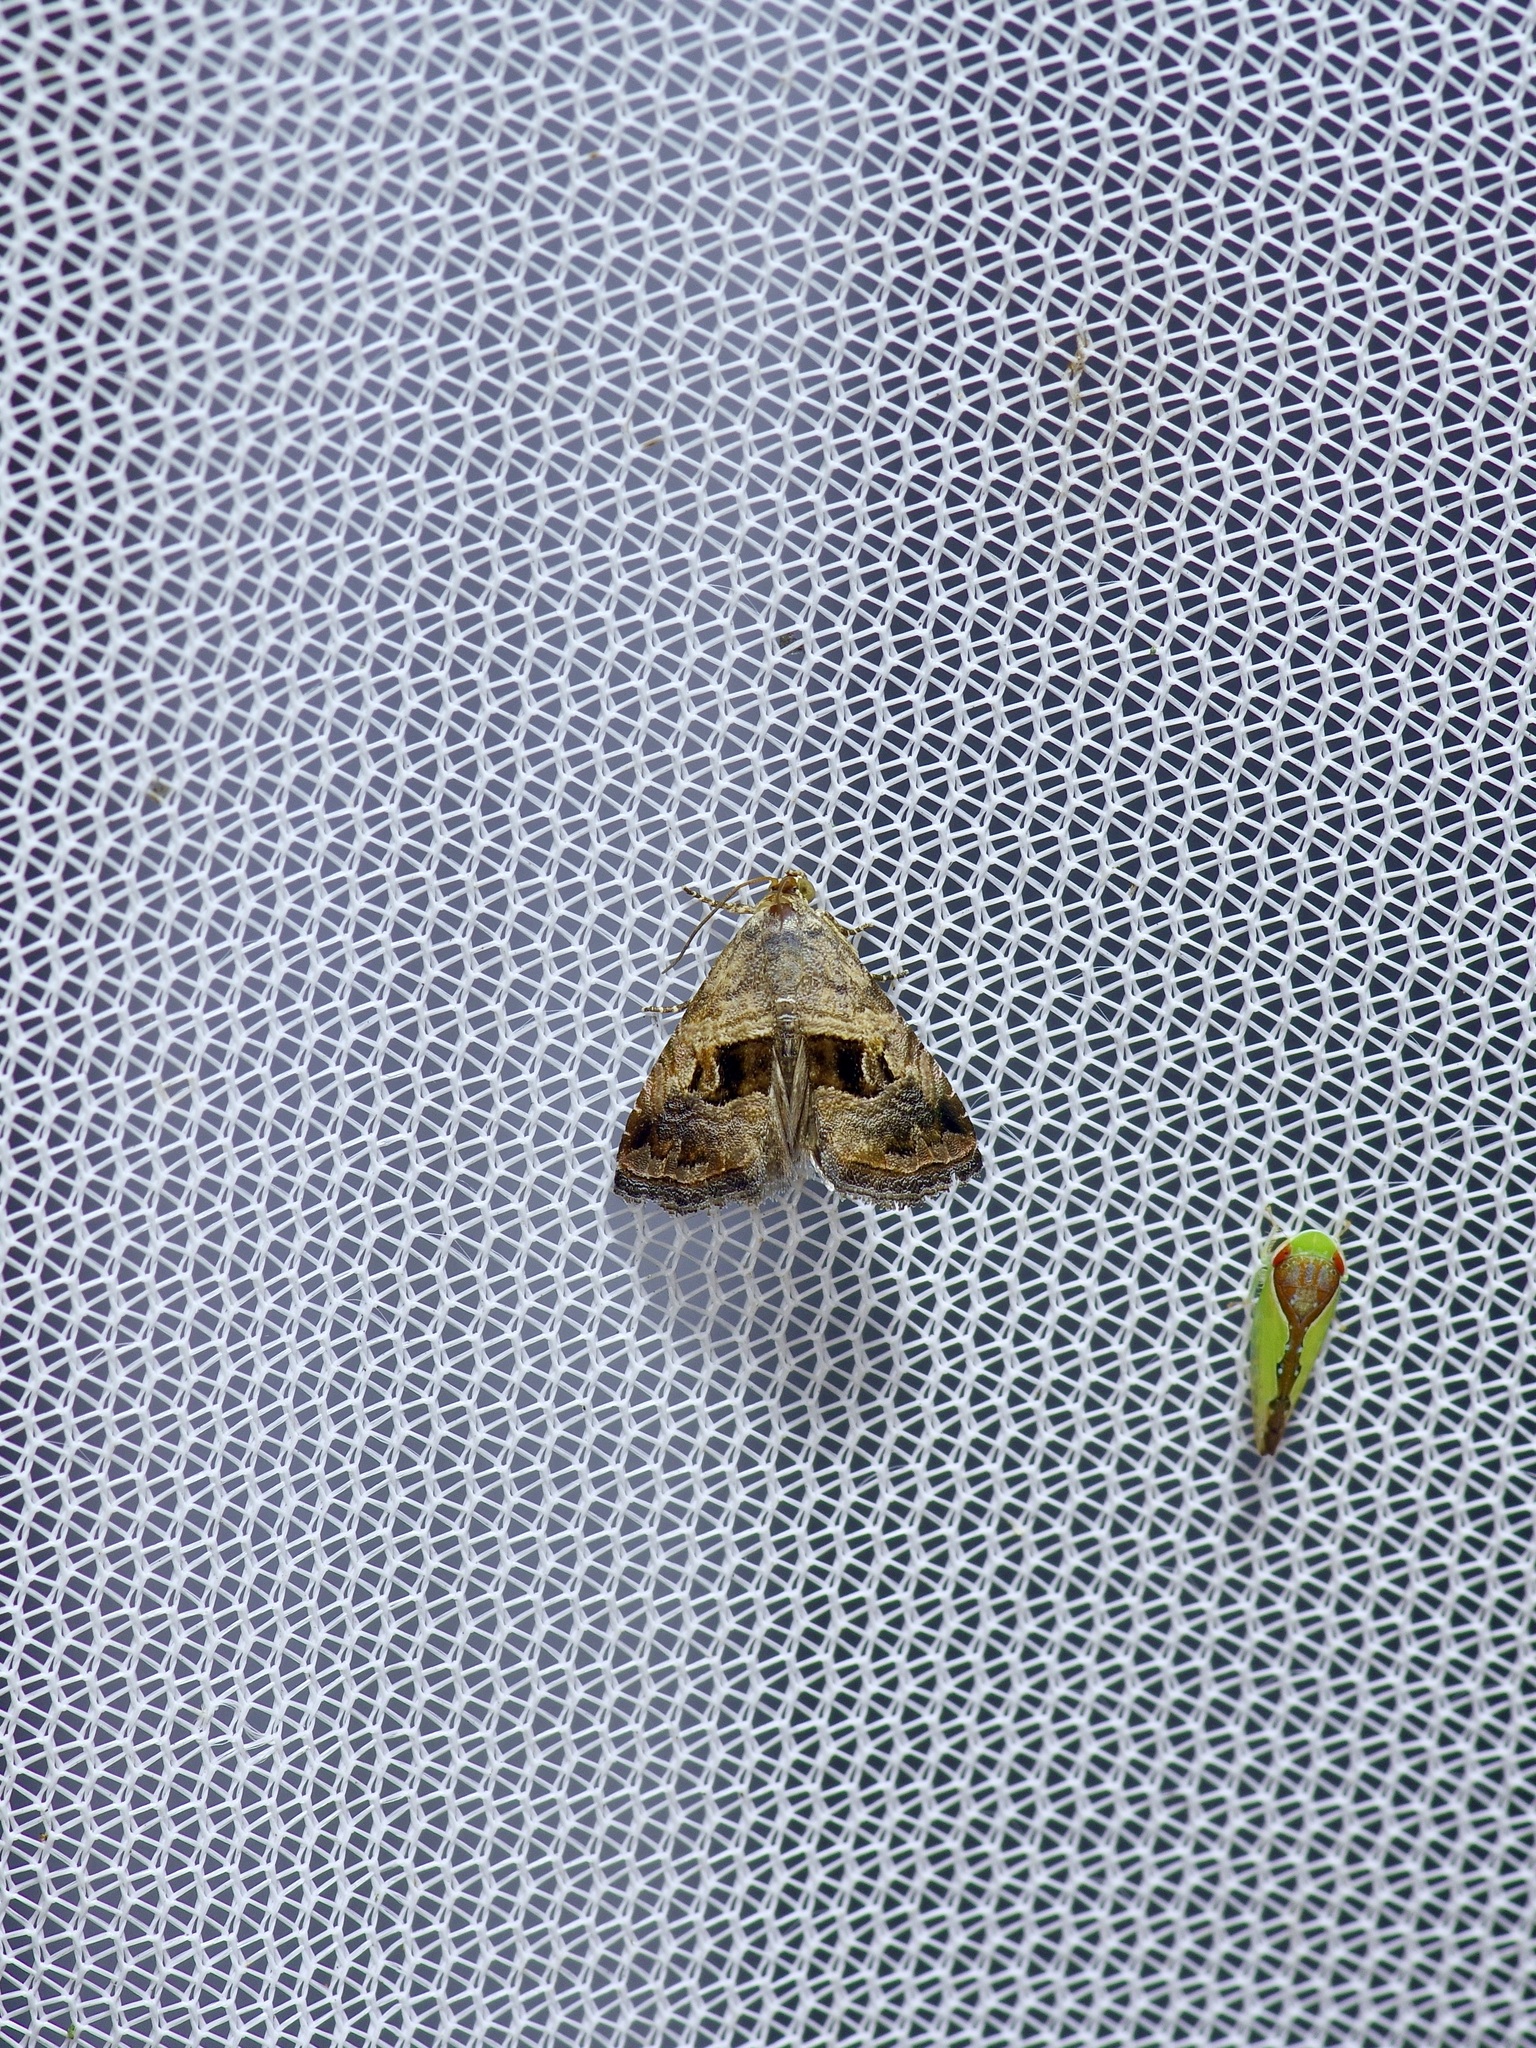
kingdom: Animalia
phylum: Arthropoda
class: Insecta
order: Lepidoptera
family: Noctuidae
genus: Tripudia
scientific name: Tripudia quadrifera
